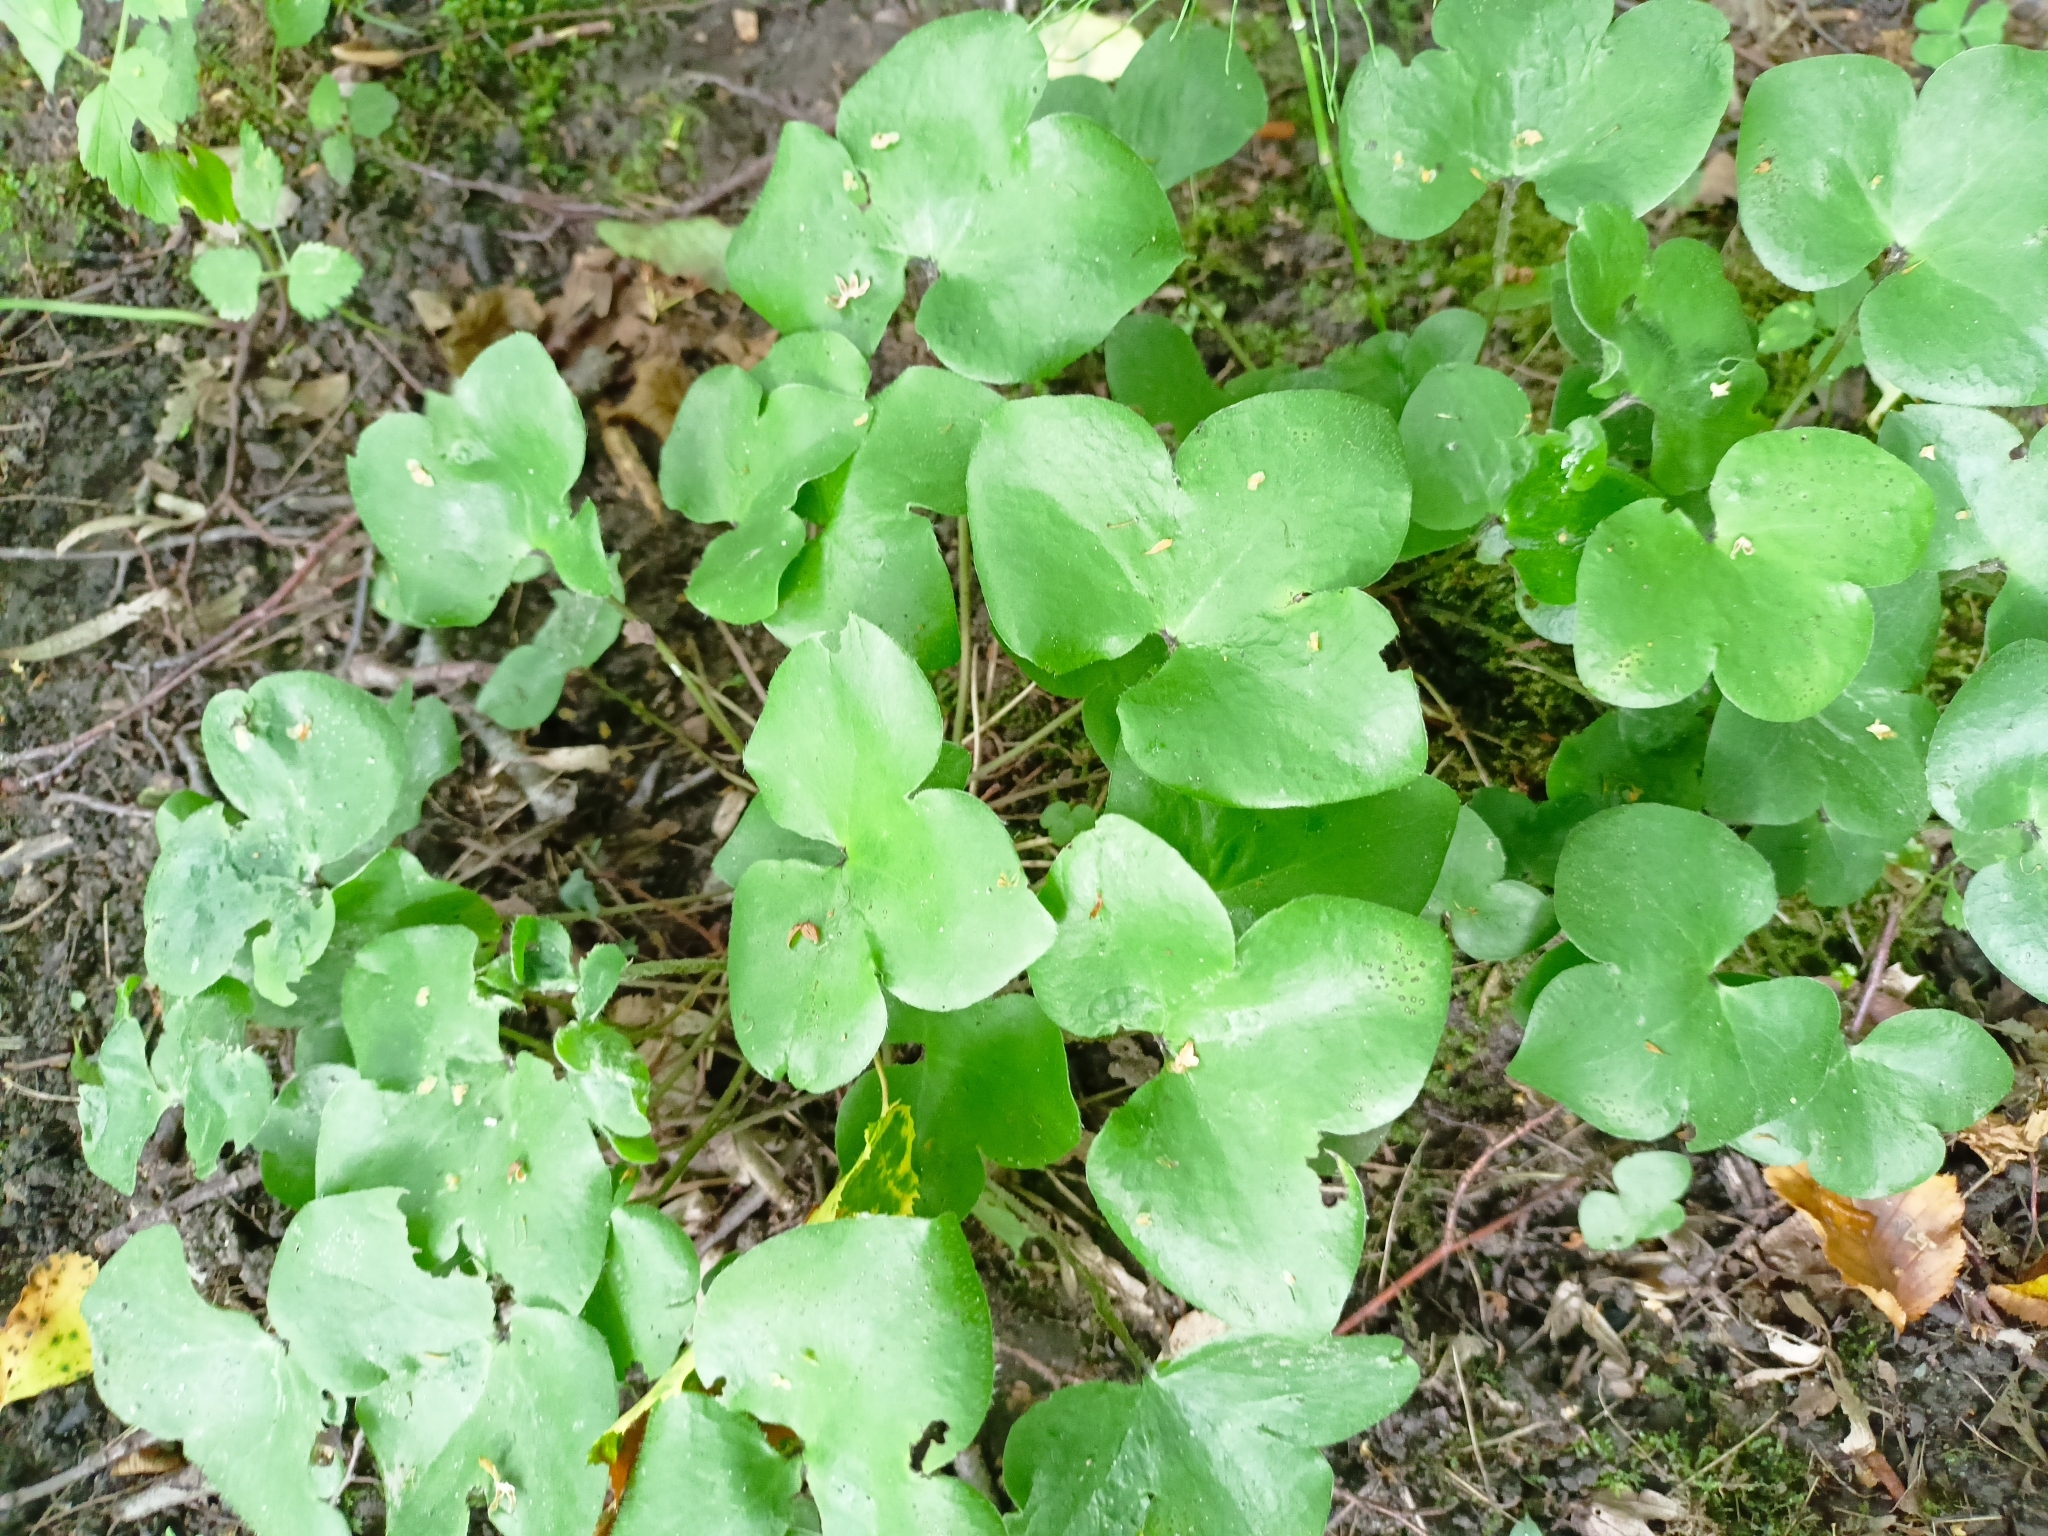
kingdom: Plantae
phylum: Tracheophyta
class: Magnoliopsida
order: Ranunculales
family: Ranunculaceae
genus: Hepatica
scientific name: Hepatica nobilis
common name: Liverleaf
